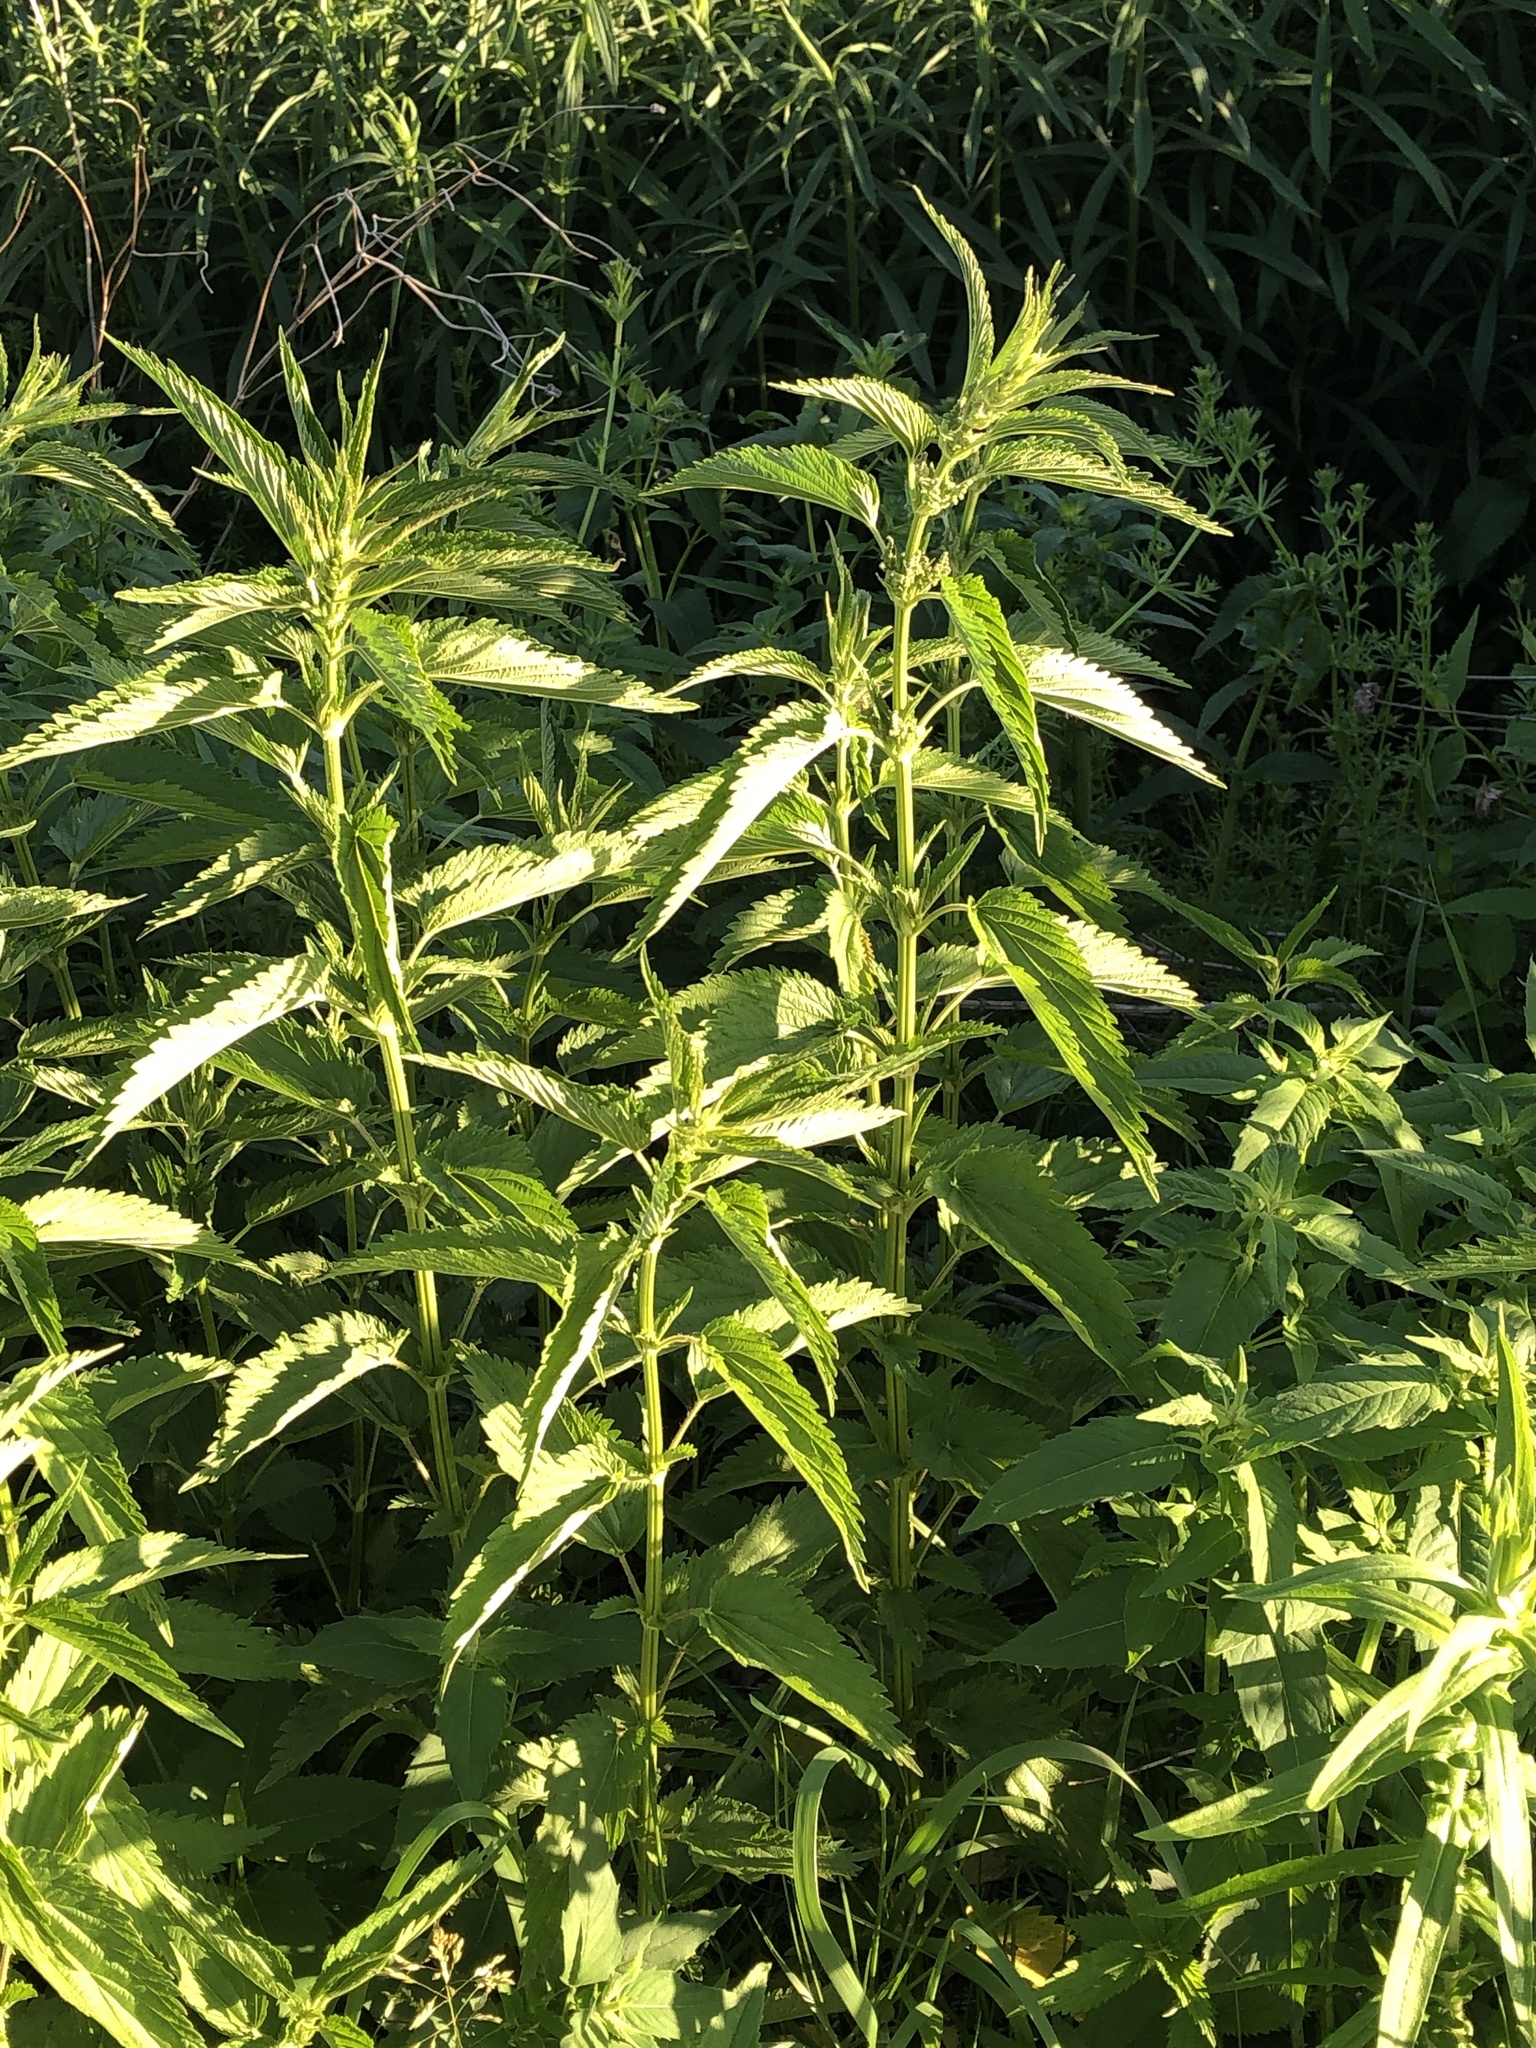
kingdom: Plantae
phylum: Tracheophyta
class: Magnoliopsida
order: Rosales
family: Urticaceae
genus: Urtica
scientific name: Urtica dioica
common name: Common nettle
